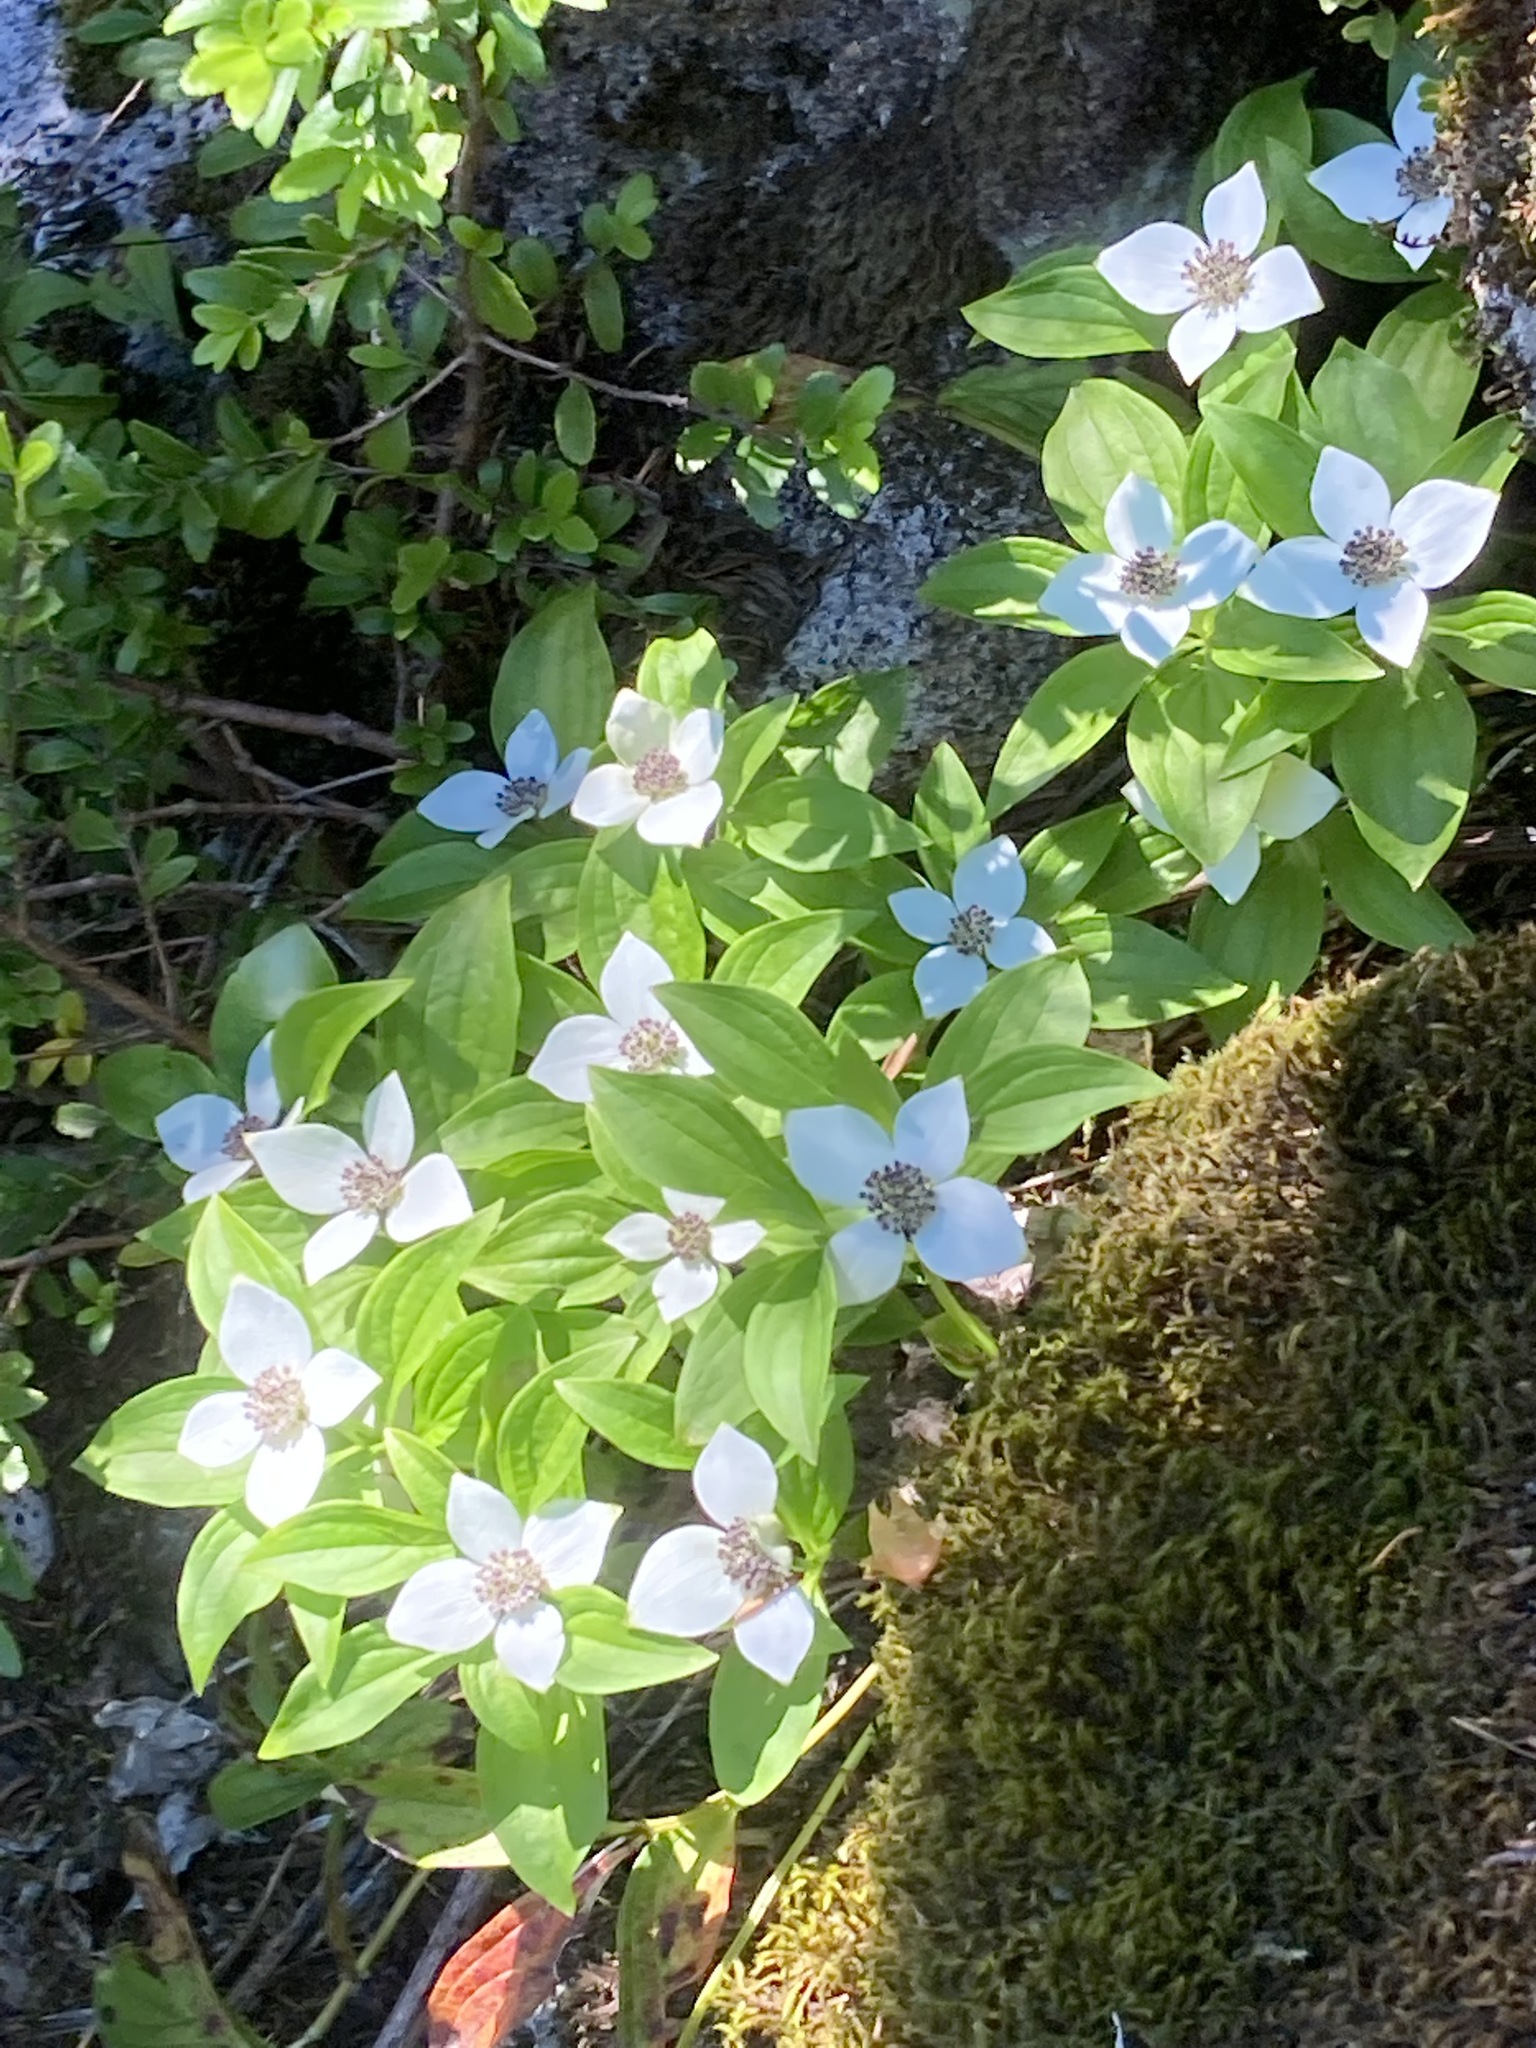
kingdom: Plantae
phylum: Tracheophyta
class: Magnoliopsida
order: Cornales
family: Cornaceae
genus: Cornus
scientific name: Cornus unalaschkensis
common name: Alaska bunchberry
